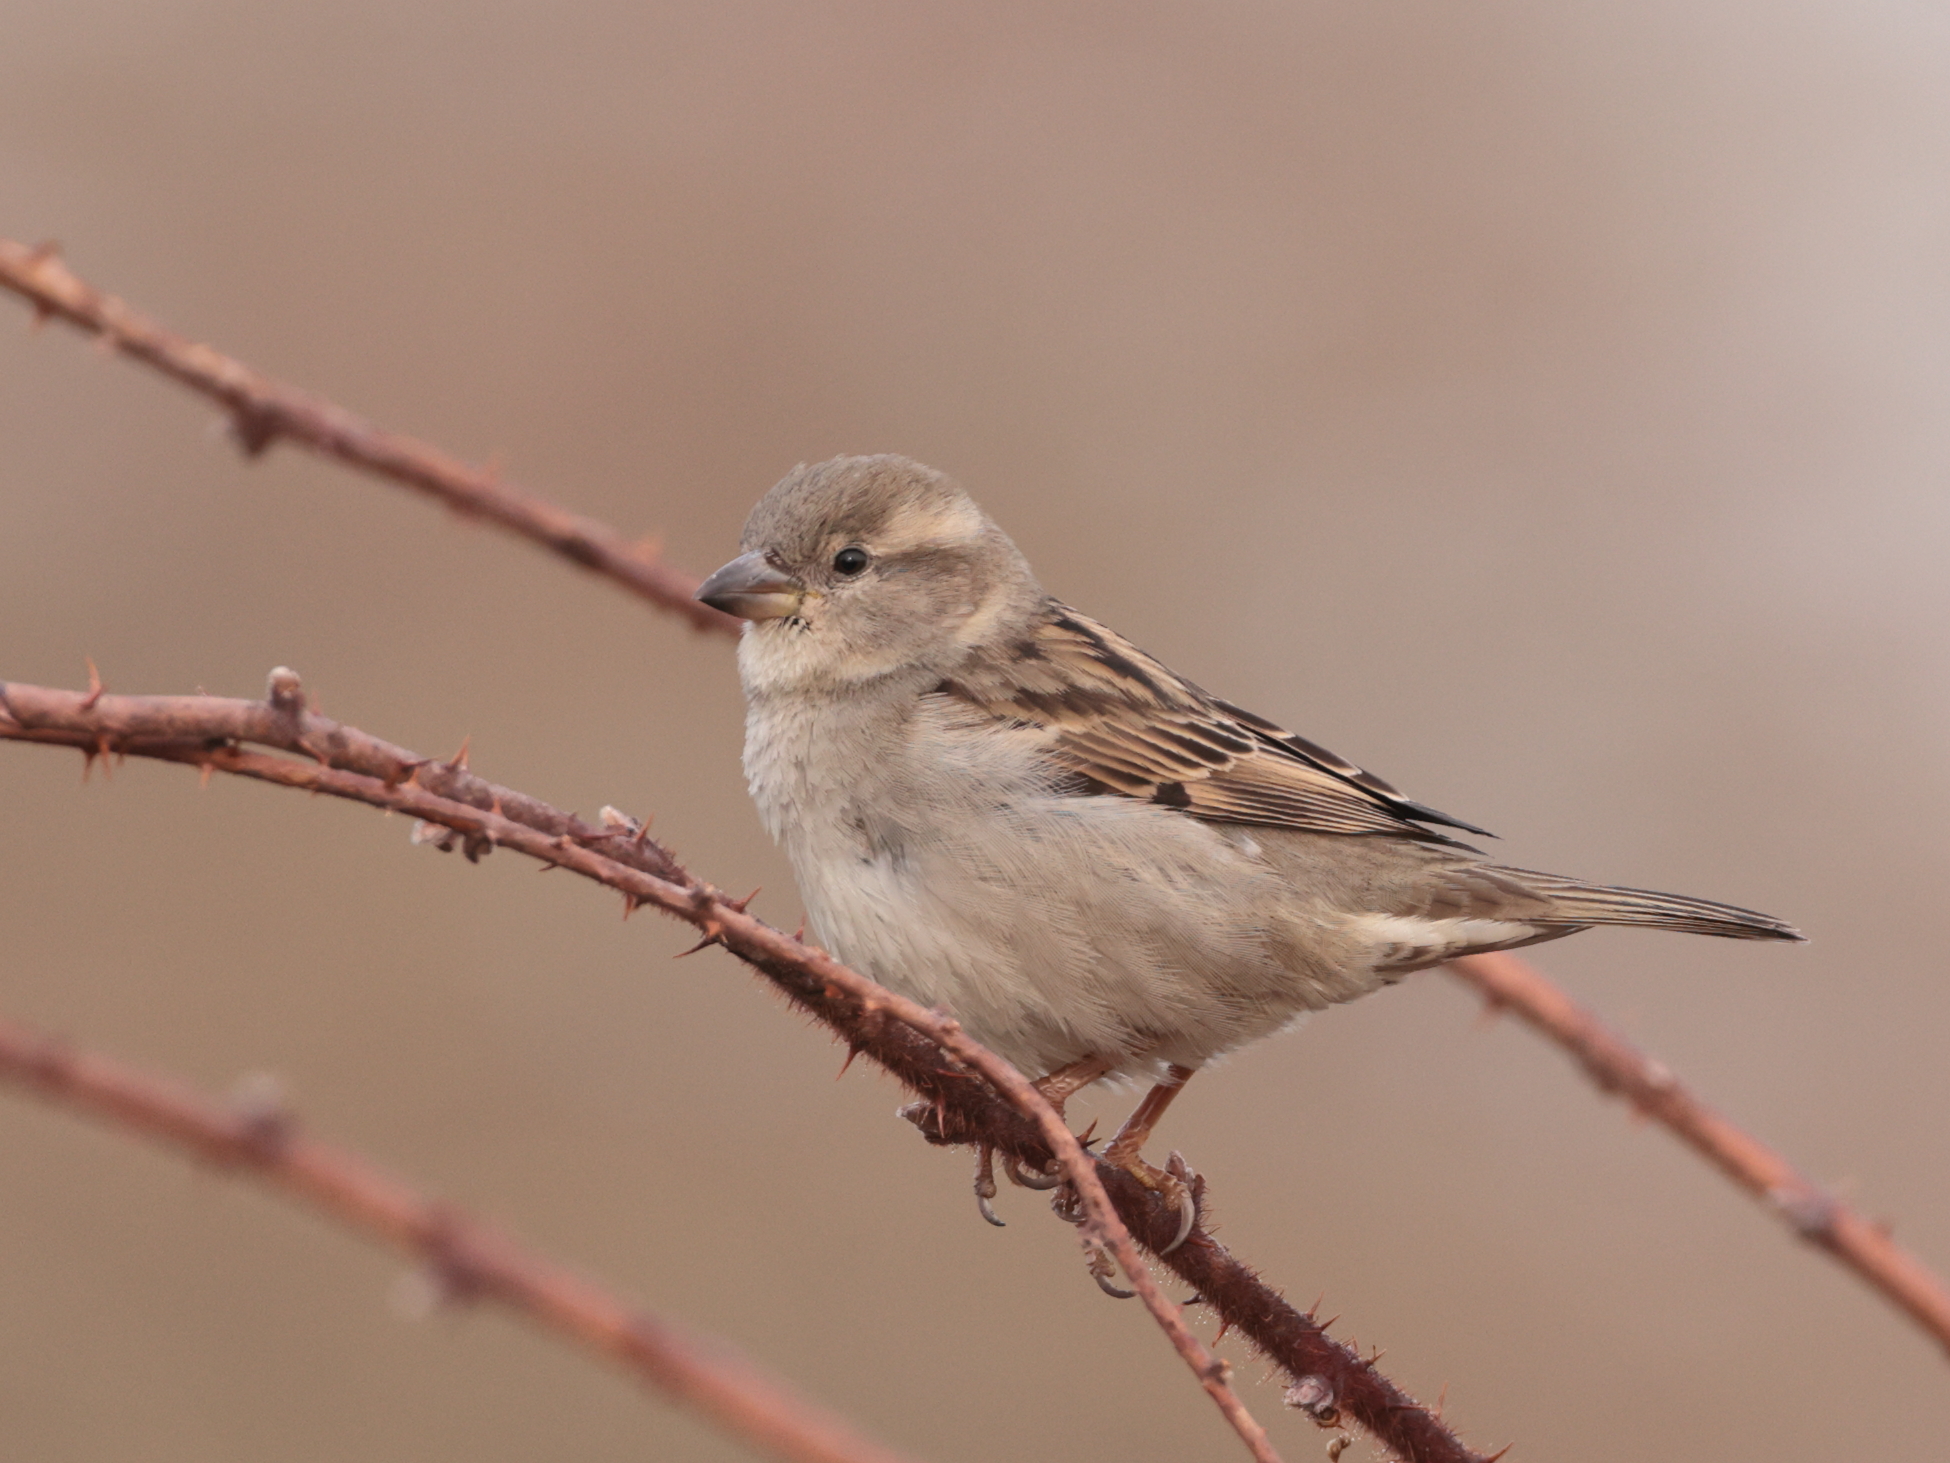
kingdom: Animalia
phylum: Chordata
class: Aves
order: Passeriformes
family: Passeridae
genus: Passer
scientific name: Passer domesticus
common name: House sparrow
